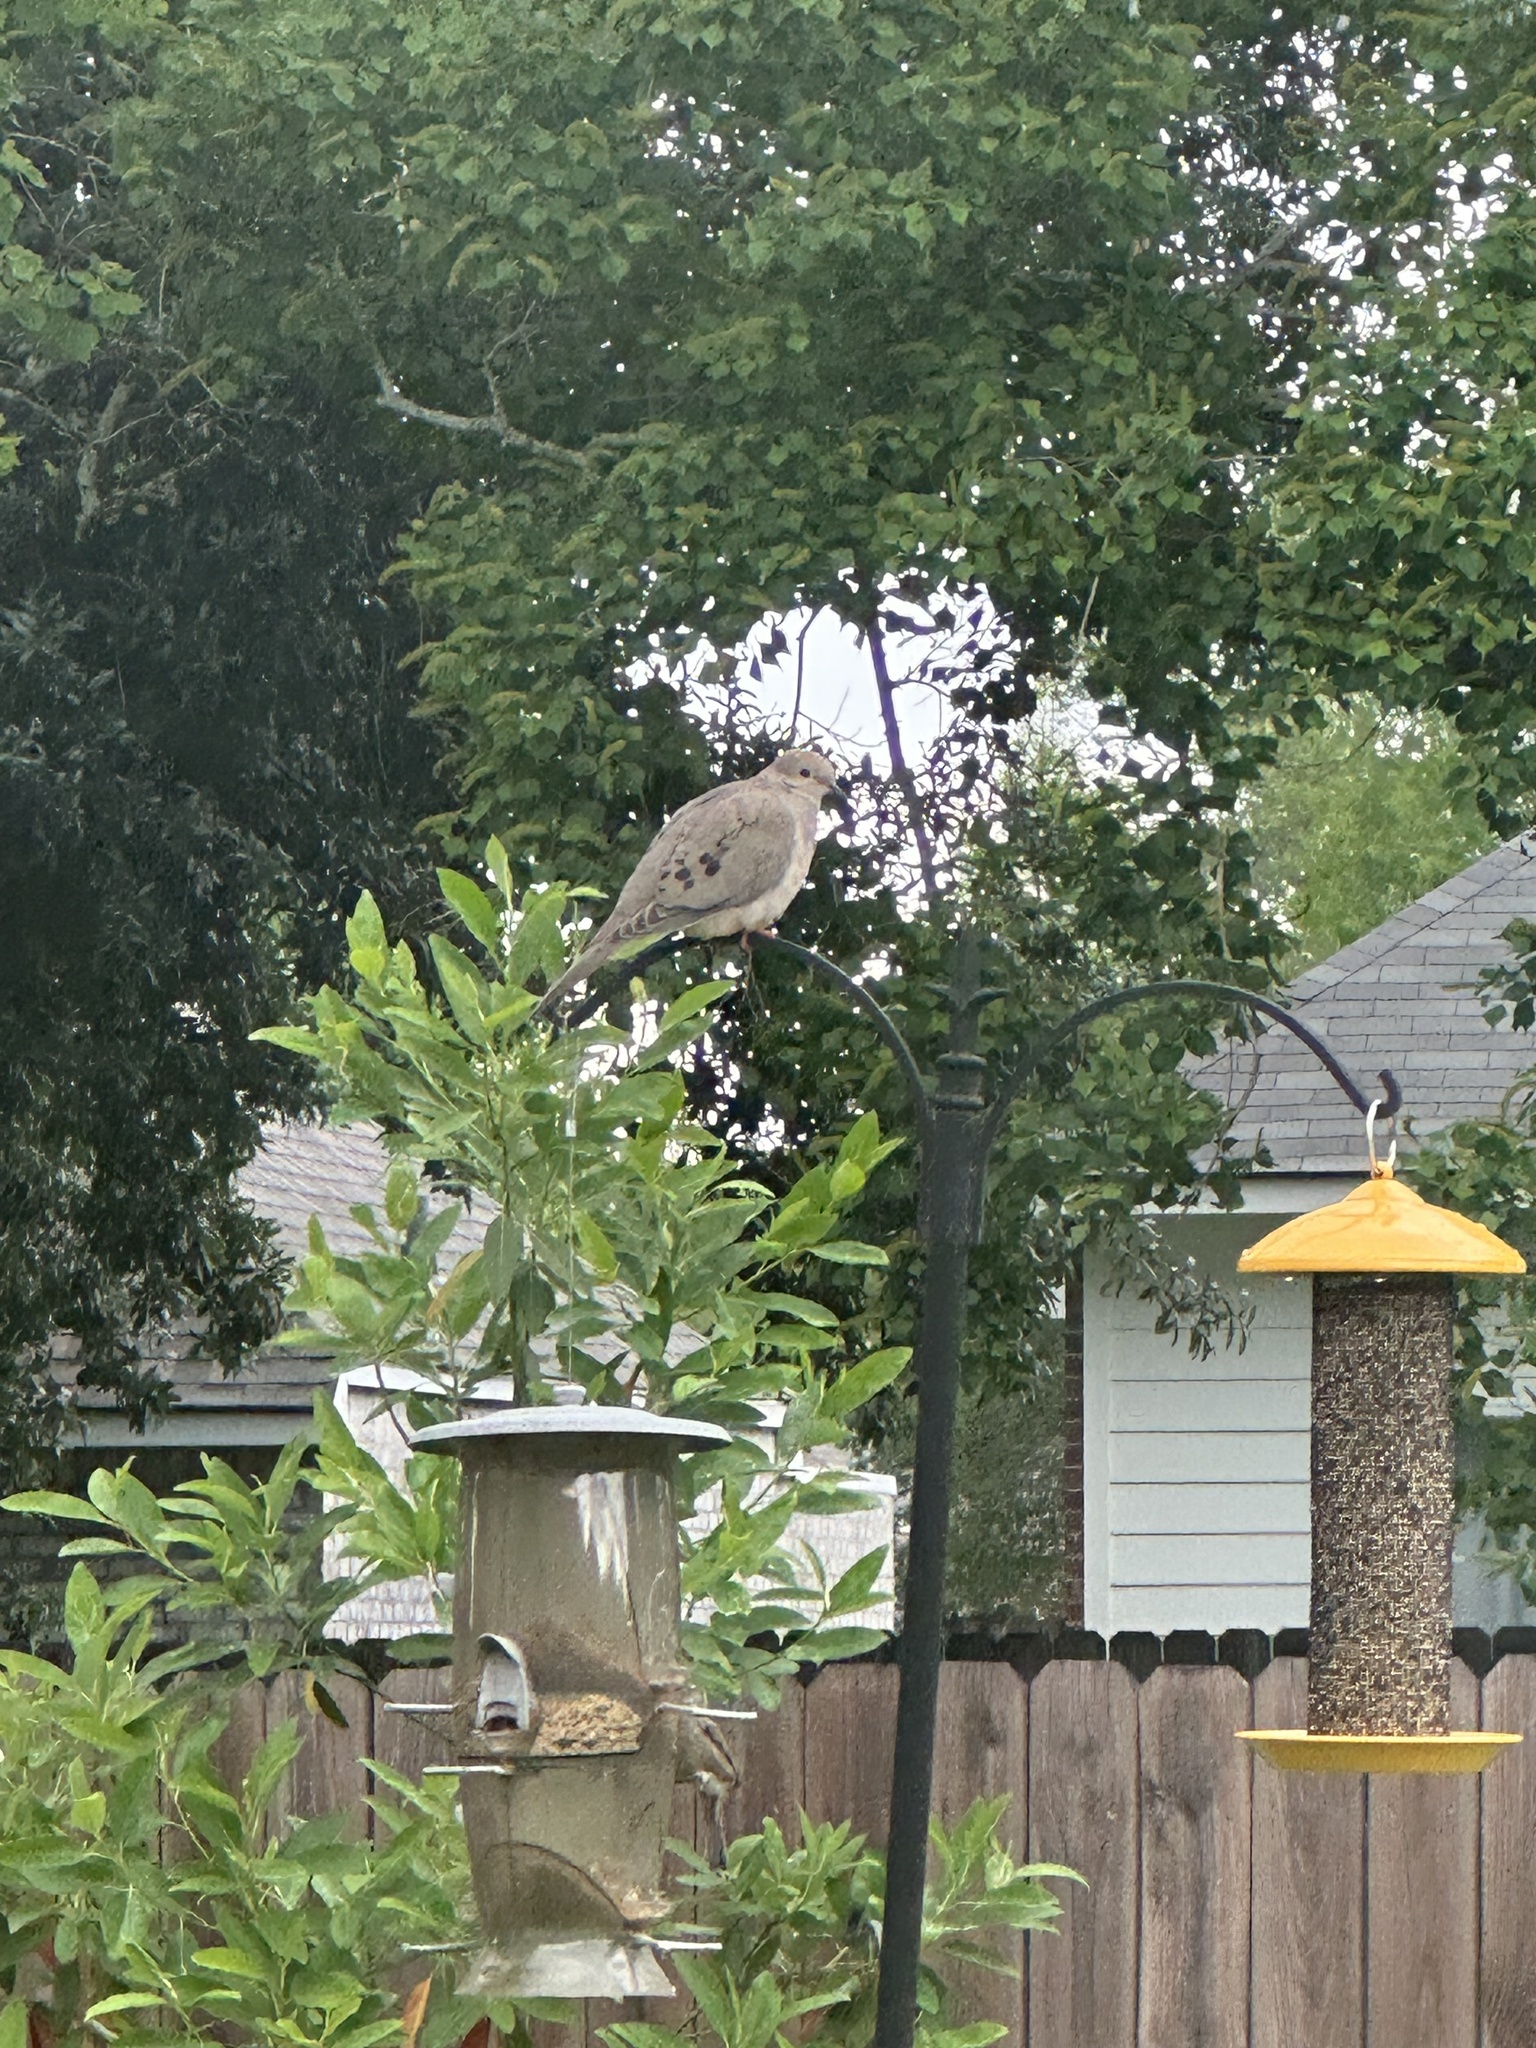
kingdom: Animalia
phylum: Chordata
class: Aves
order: Columbiformes
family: Columbidae
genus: Zenaida
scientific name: Zenaida macroura
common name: Mourning dove
